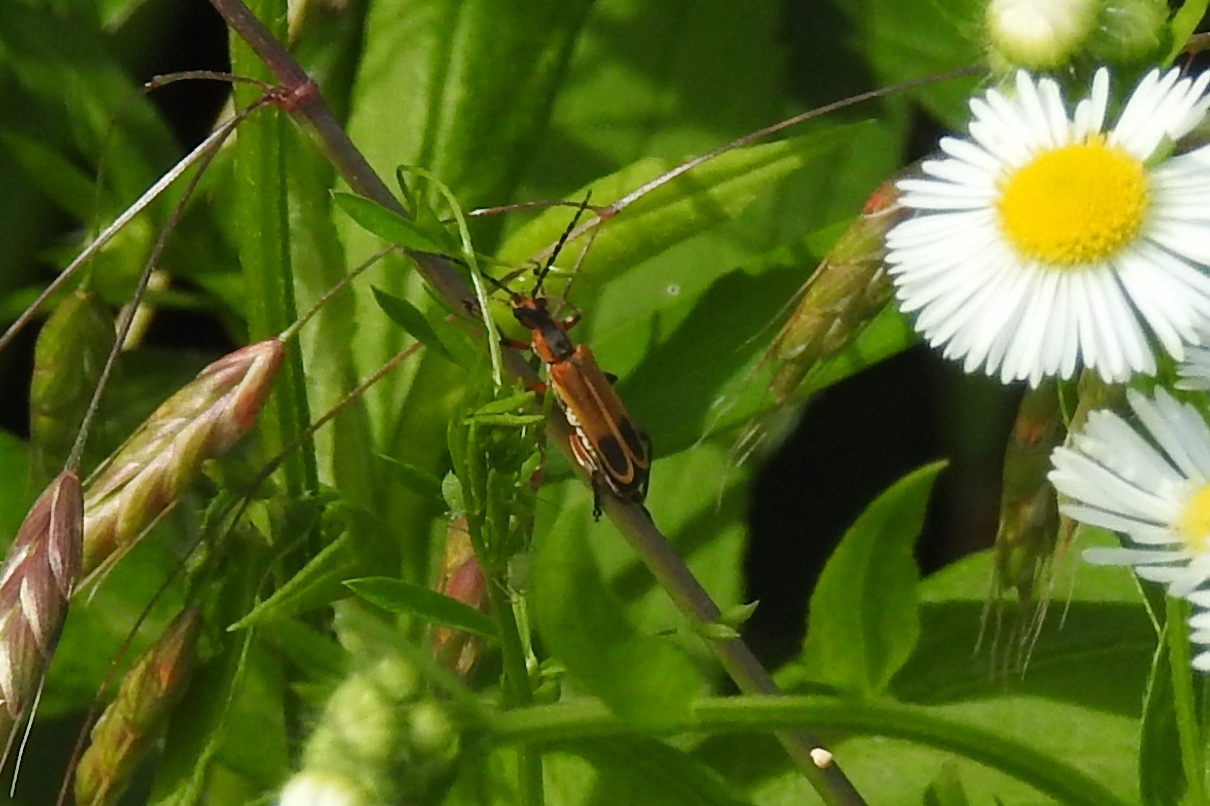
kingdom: Animalia
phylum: Arthropoda
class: Insecta
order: Coleoptera
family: Cantharidae
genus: Chauliognathus
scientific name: Chauliognathus marginatus
